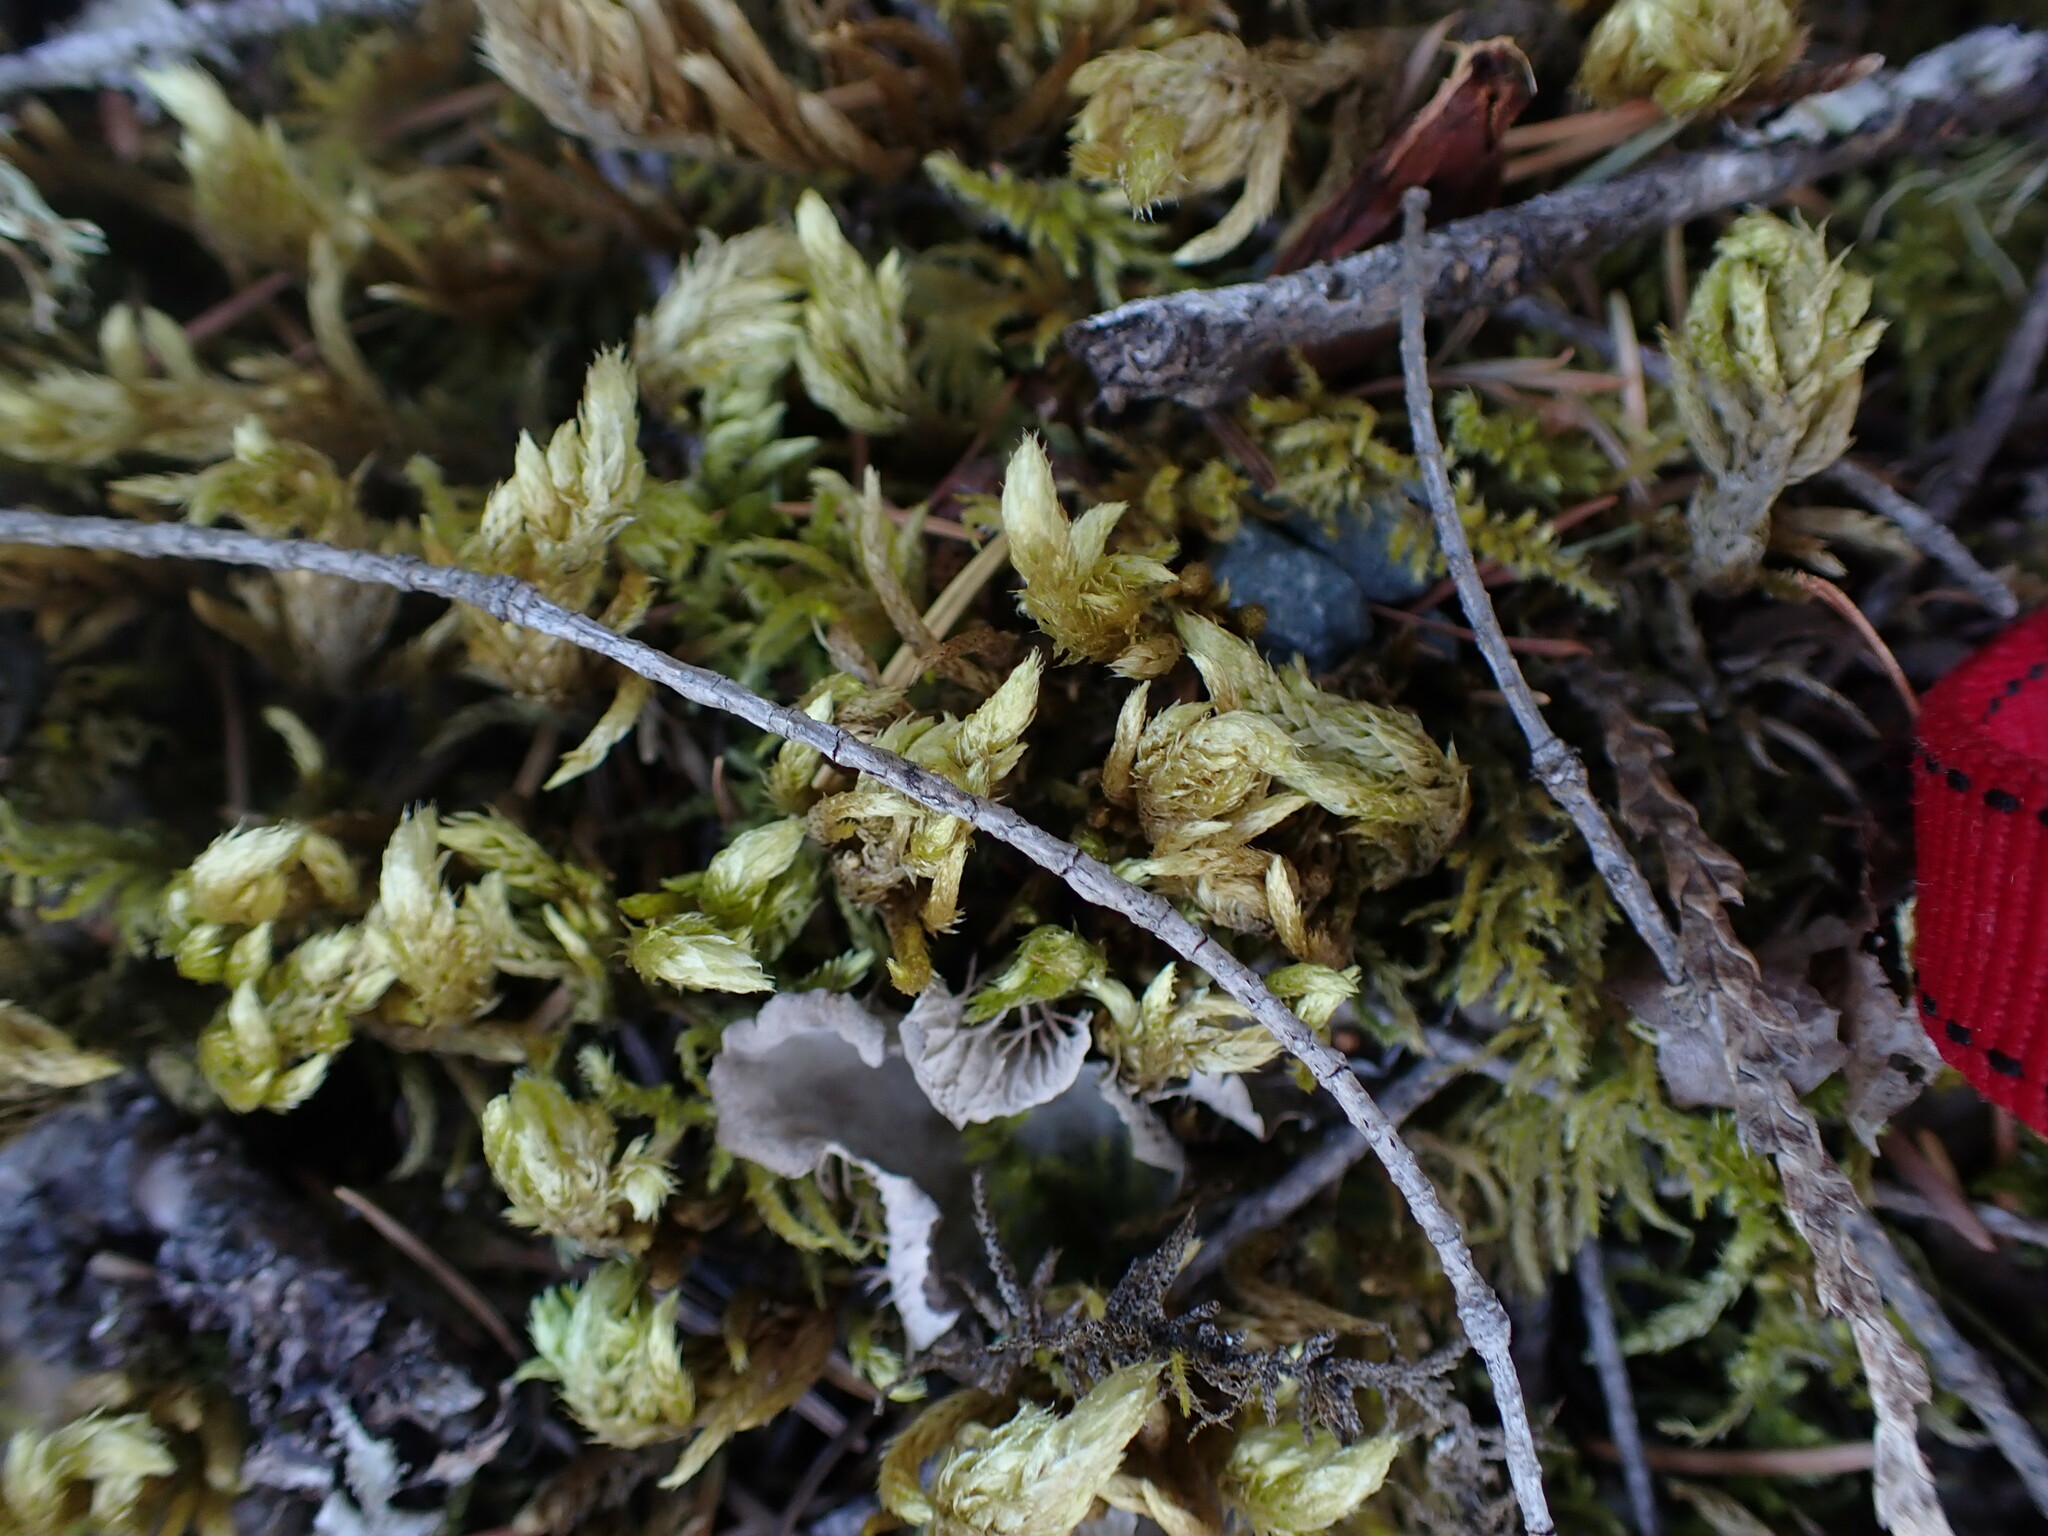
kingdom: Plantae
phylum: Bryophyta
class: Bryopsida
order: Hypnales
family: Brachytheciaceae
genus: Homalothecium
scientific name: Homalothecium megaptilum
